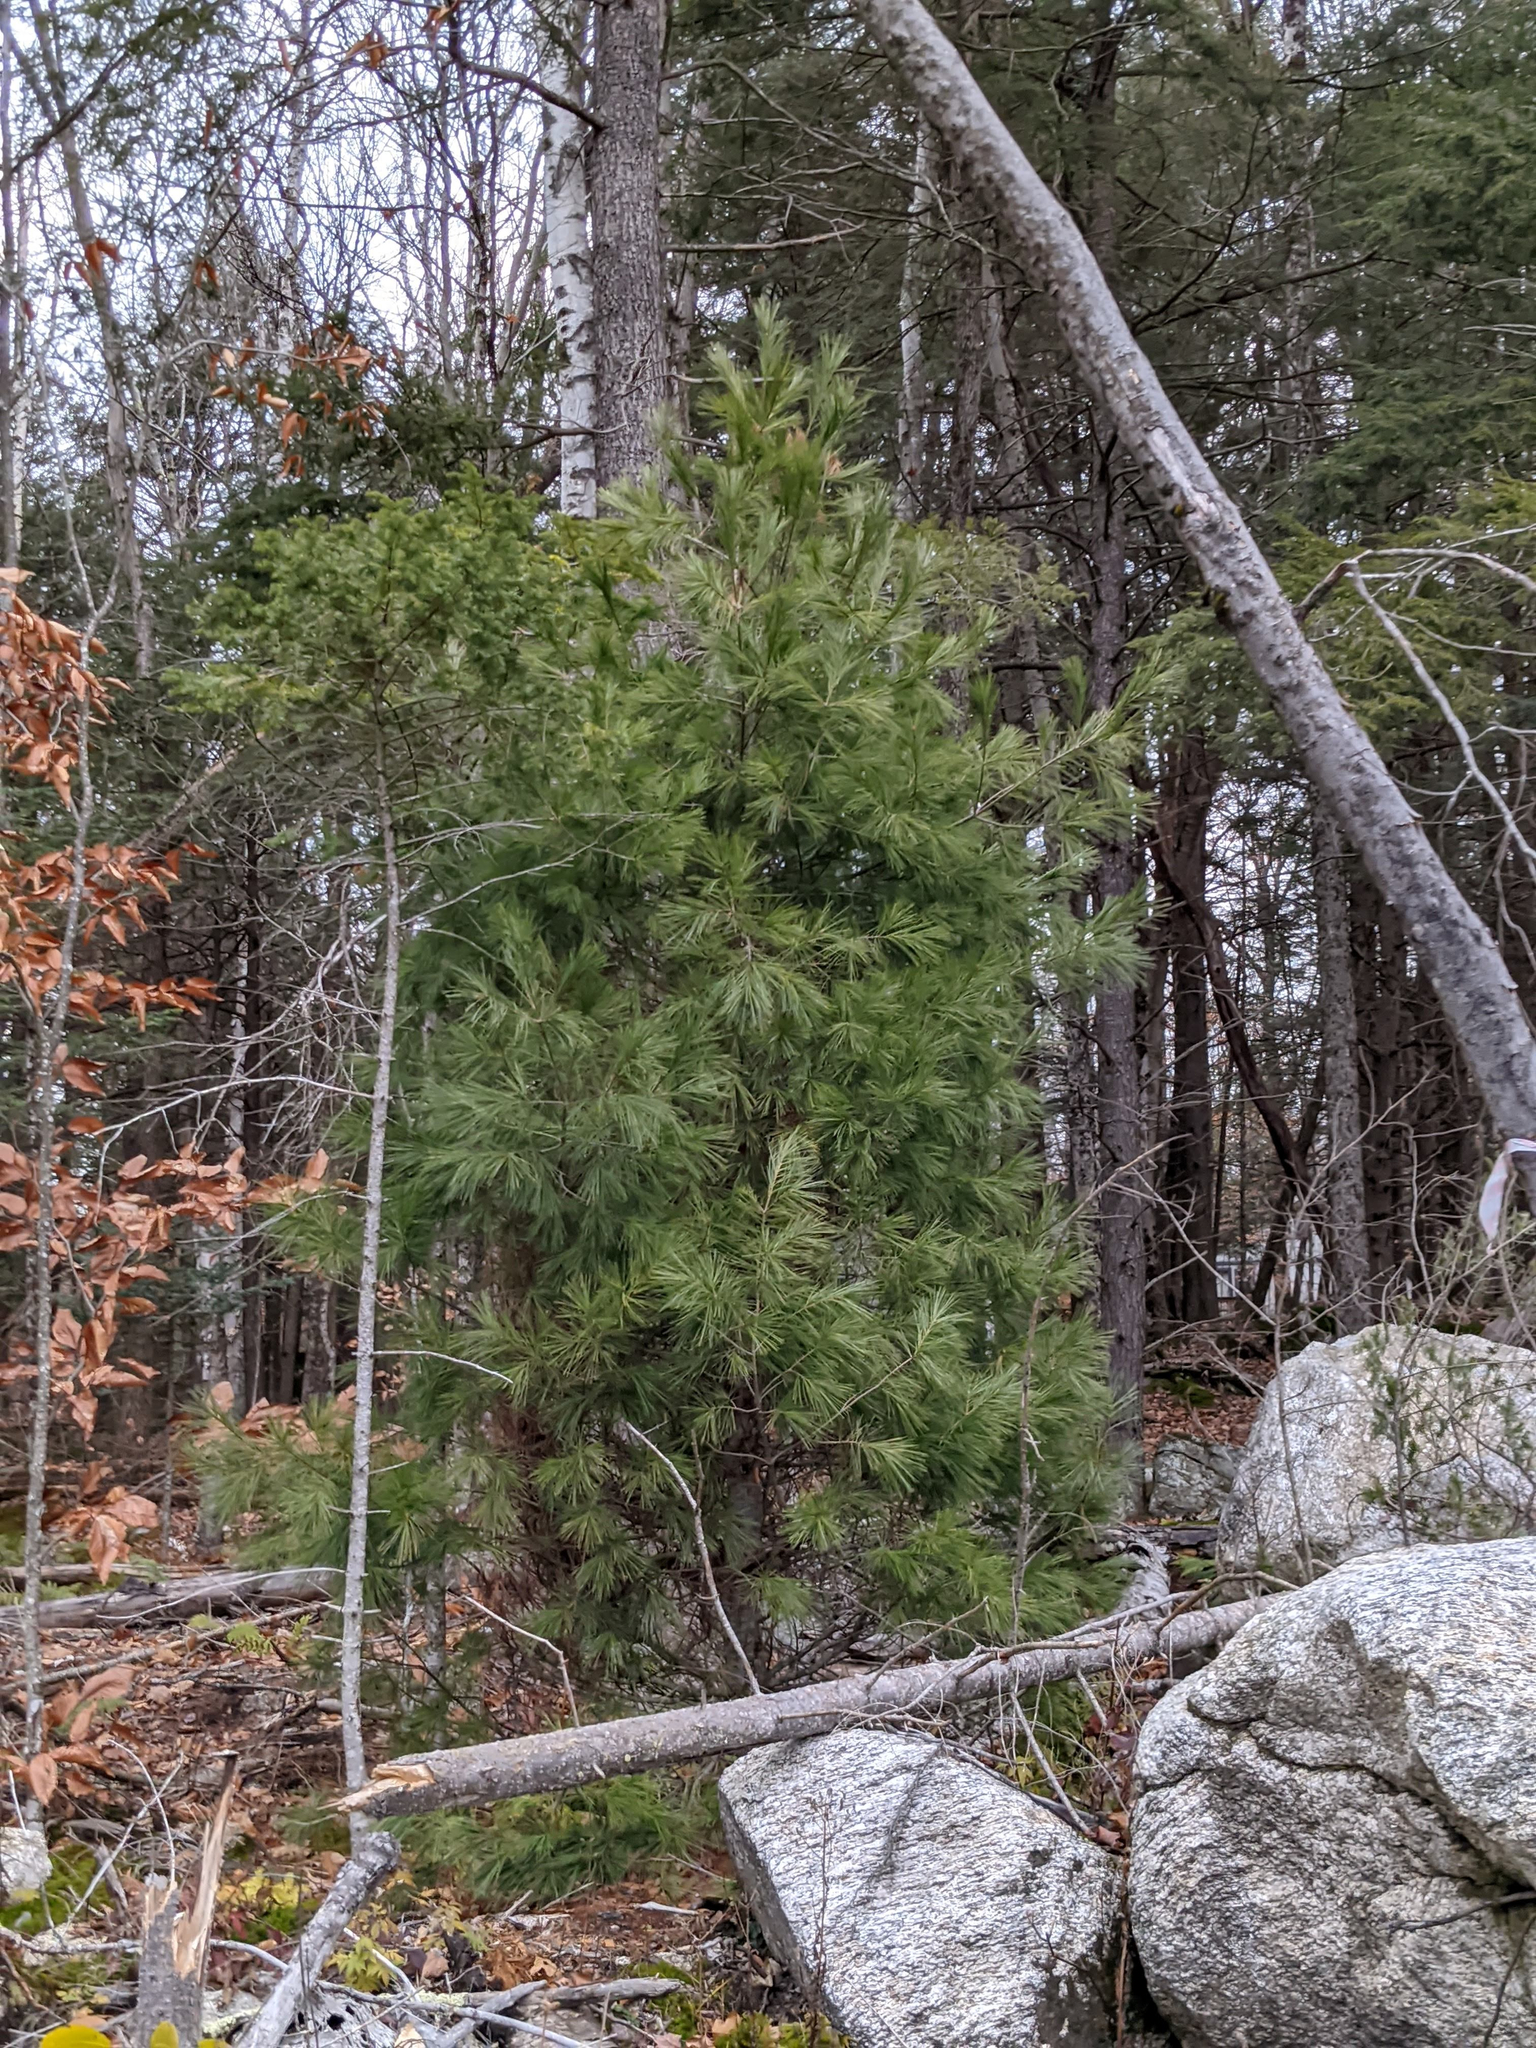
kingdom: Plantae
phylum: Tracheophyta
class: Pinopsida
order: Pinales
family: Pinaceae
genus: Pinus
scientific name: Pinus strobus
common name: Weymouth pine
